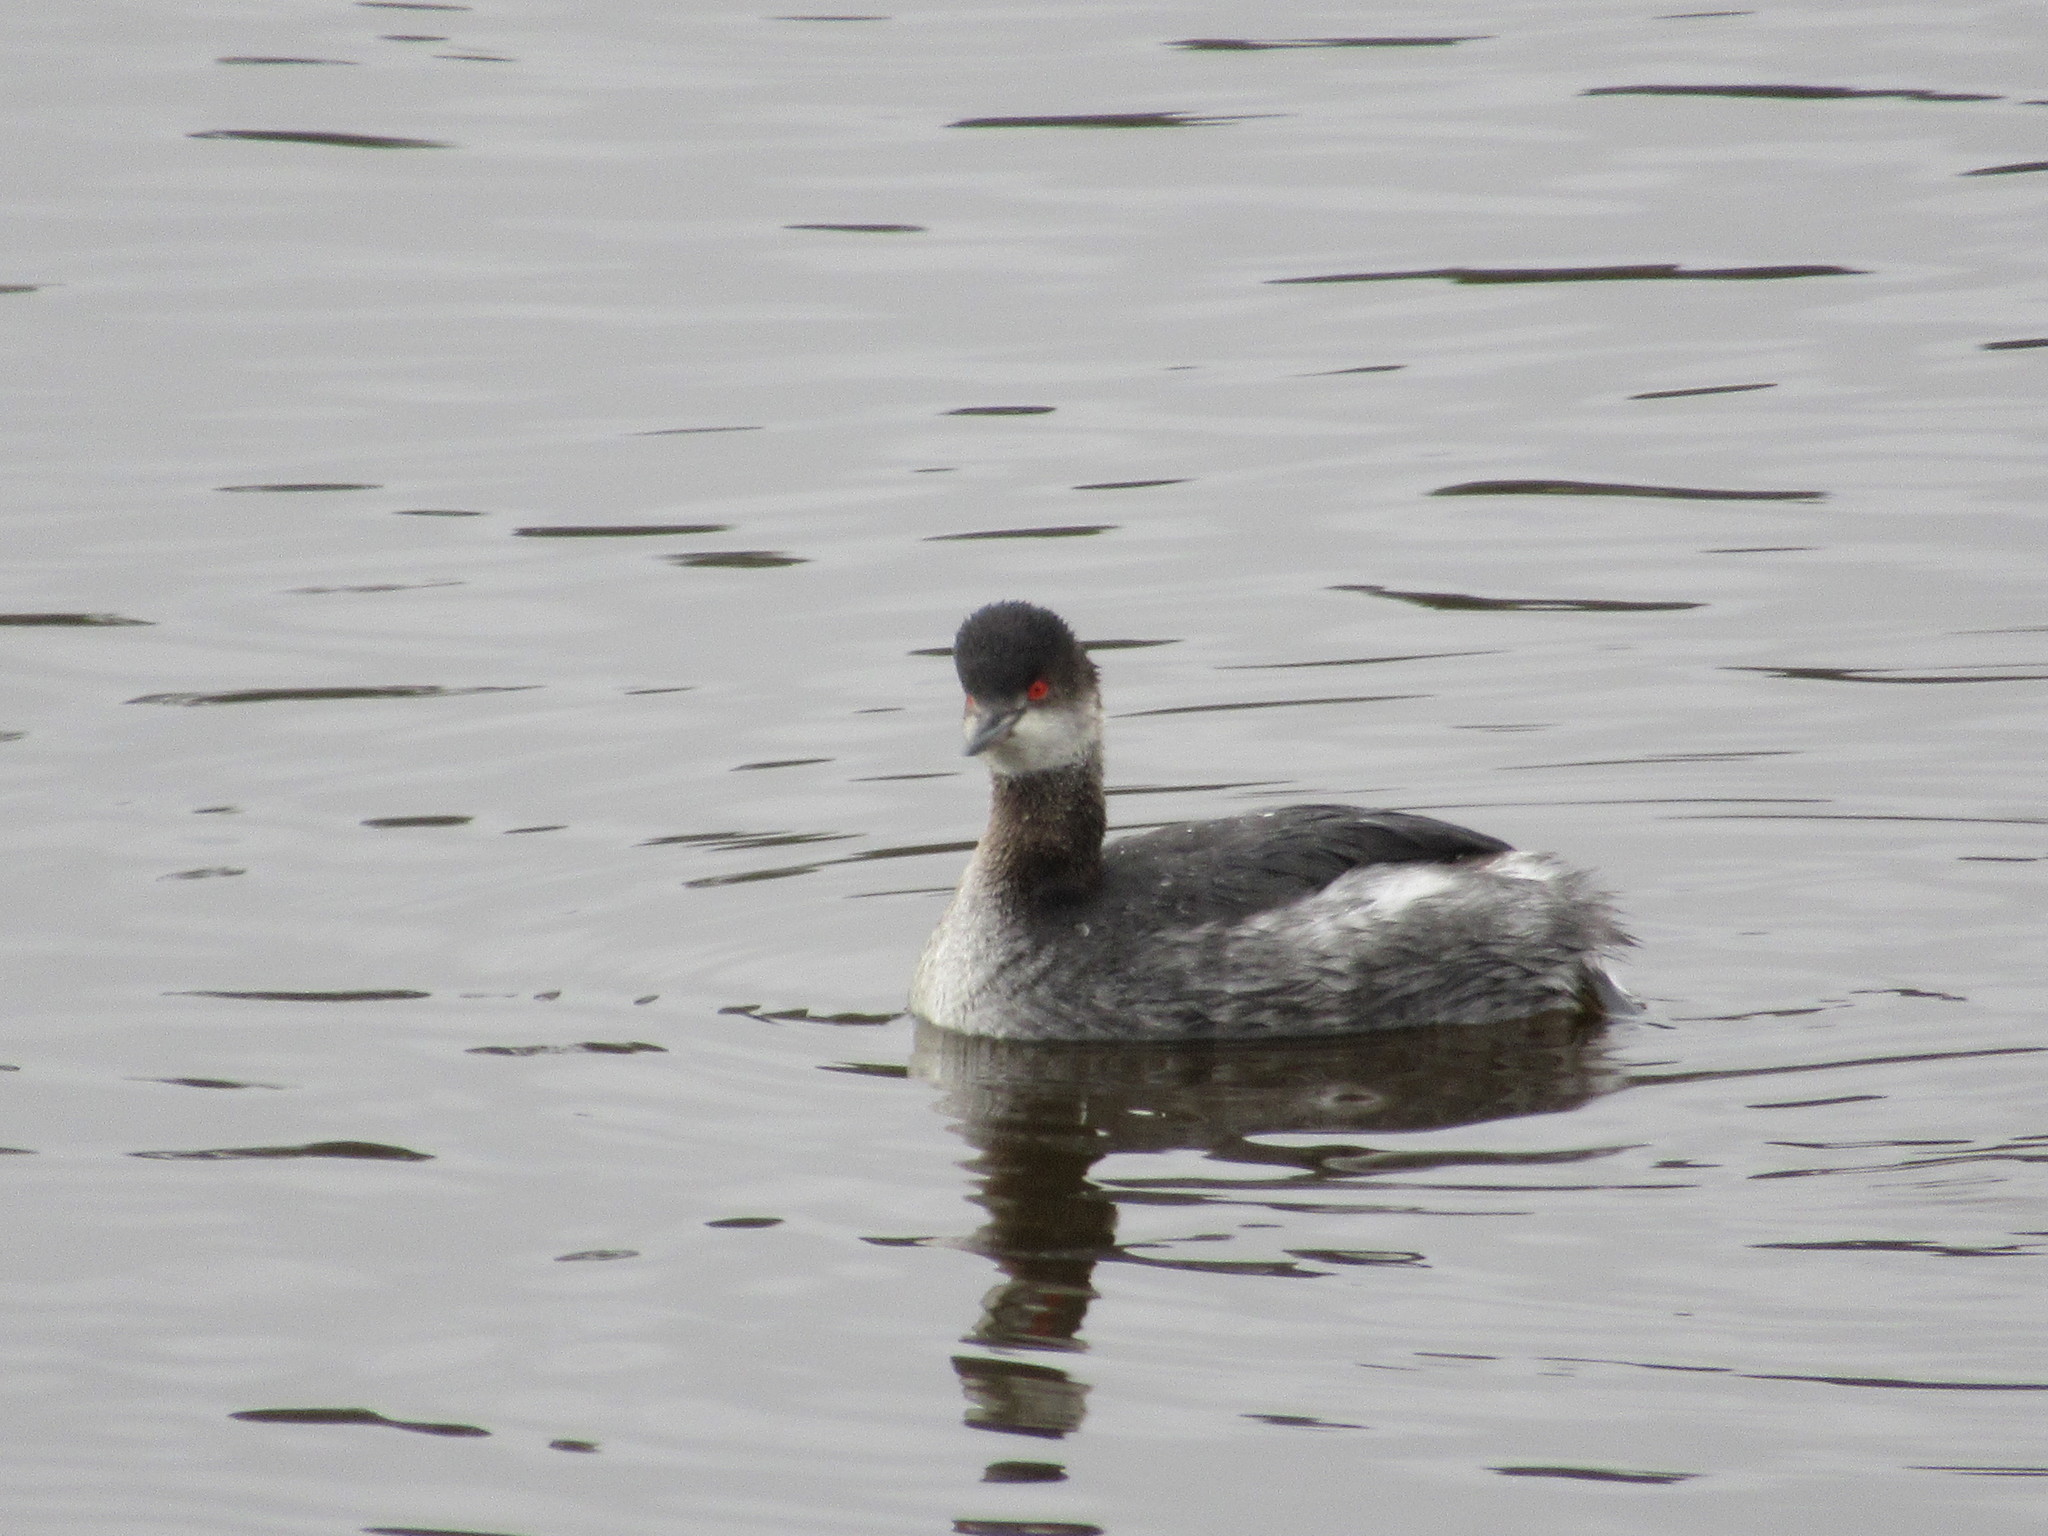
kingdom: Animalia
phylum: Chordata
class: Aves
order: Podicipediformes
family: Podicipedidae
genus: Podiceps
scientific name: Podiceps nigricollis
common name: Black-necked grebe
